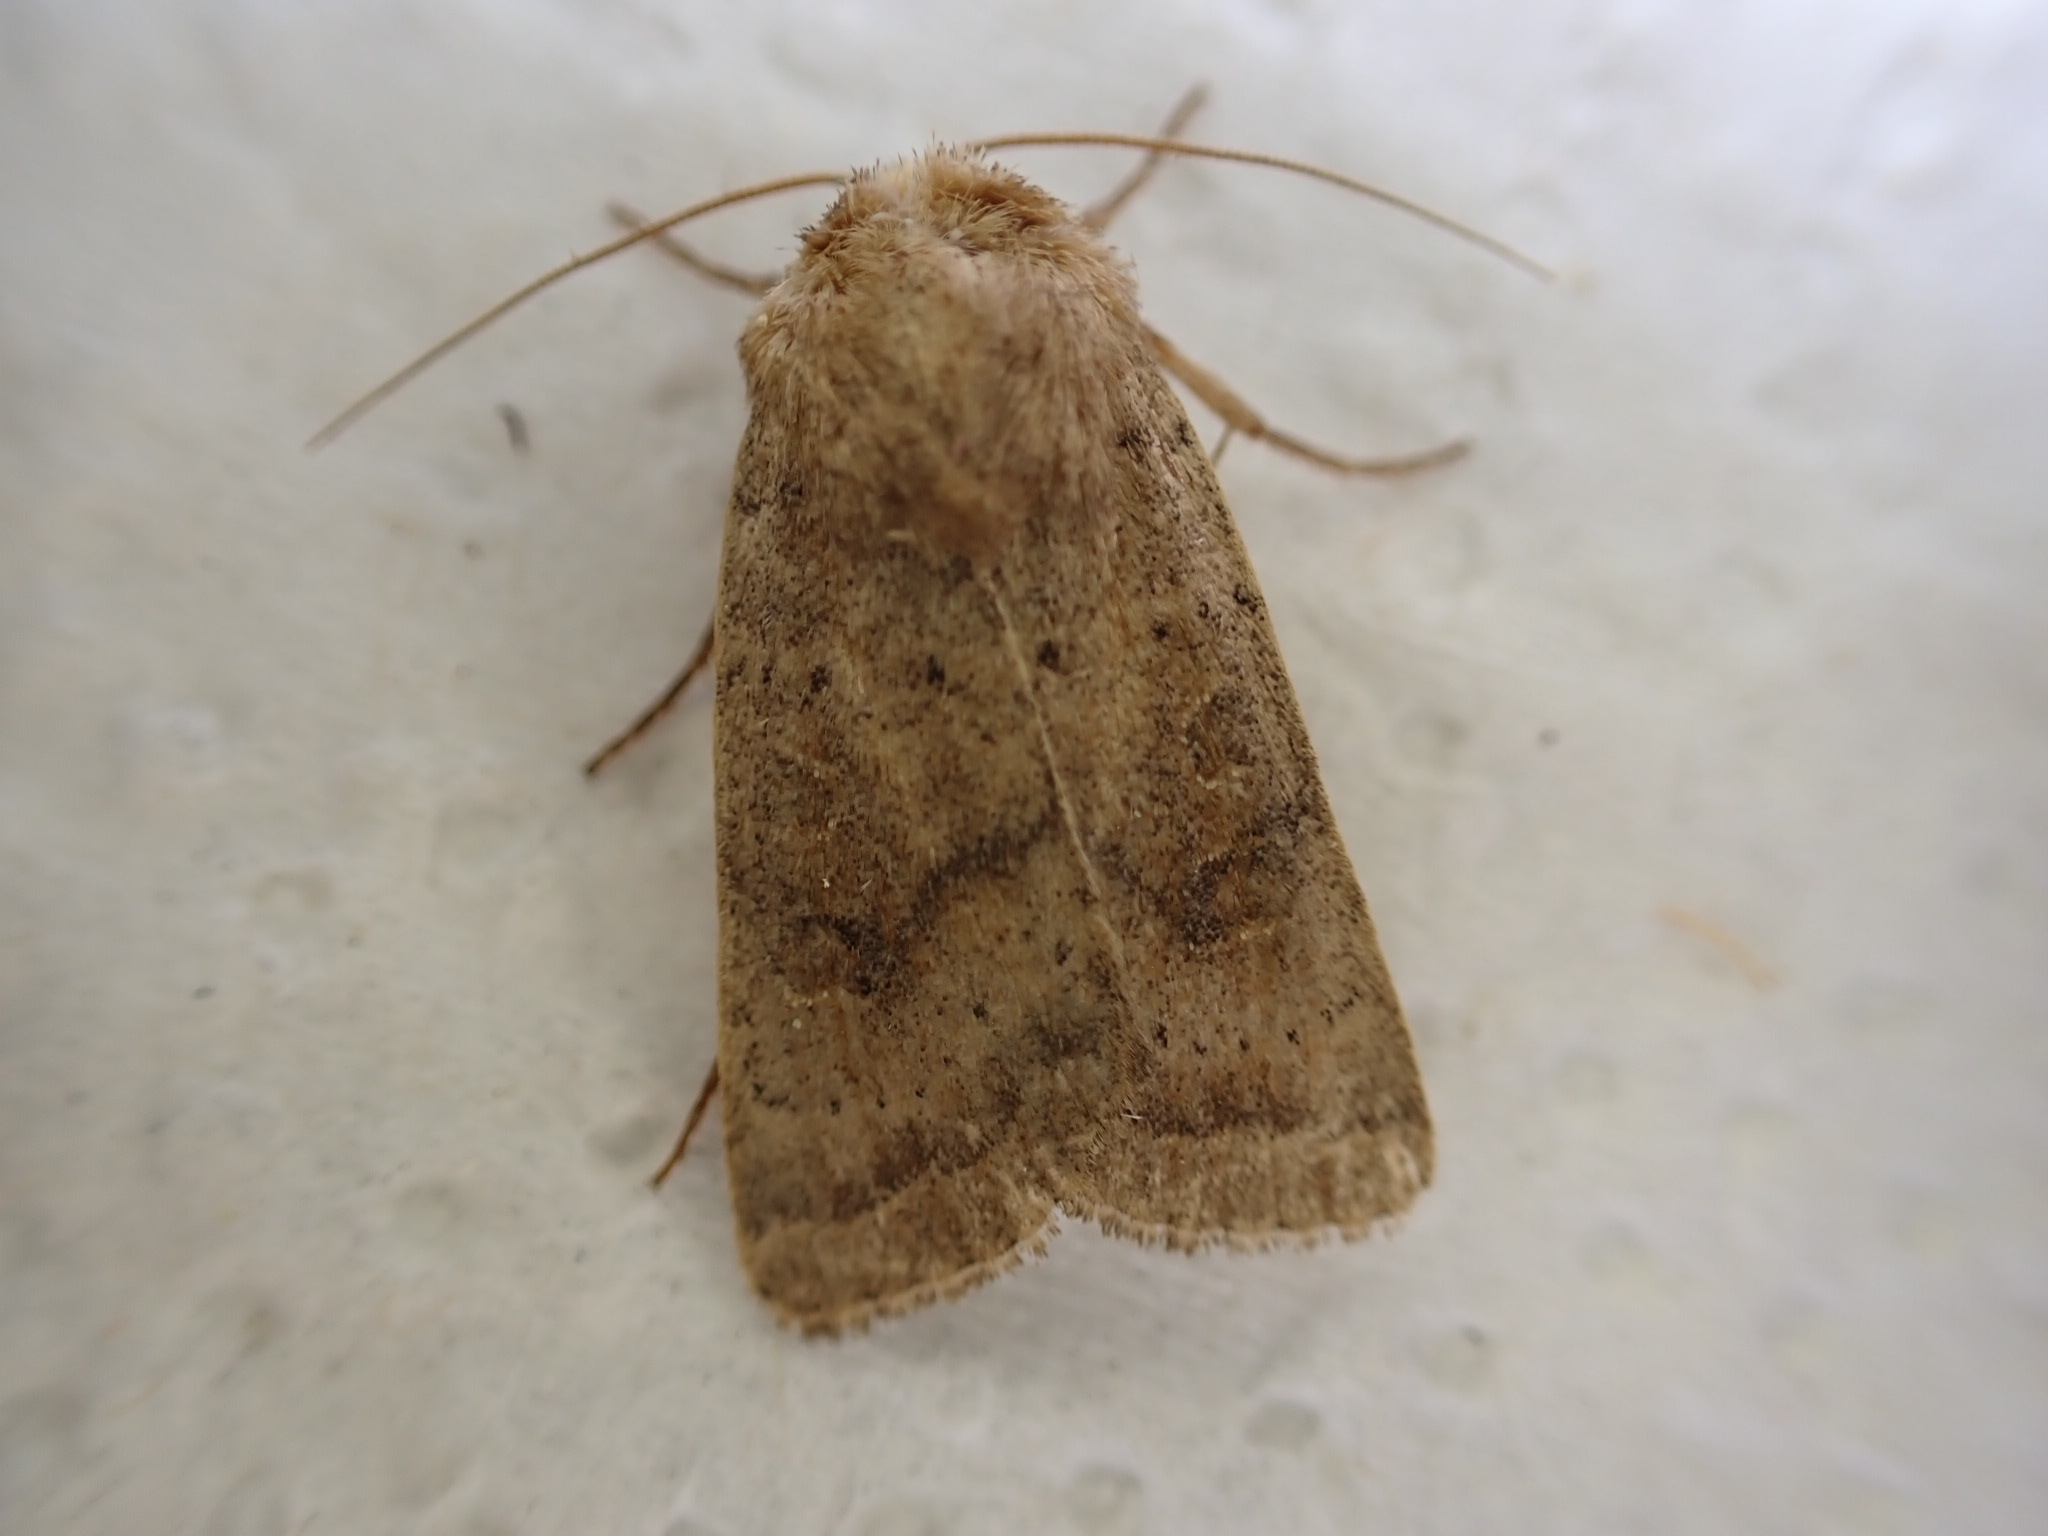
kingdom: Animalia
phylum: Arthropoda
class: Insecta
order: Lepidoptera
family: Noctuidae
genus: Hoplodrina
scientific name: Hoplodrina blanda
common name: Rustic
